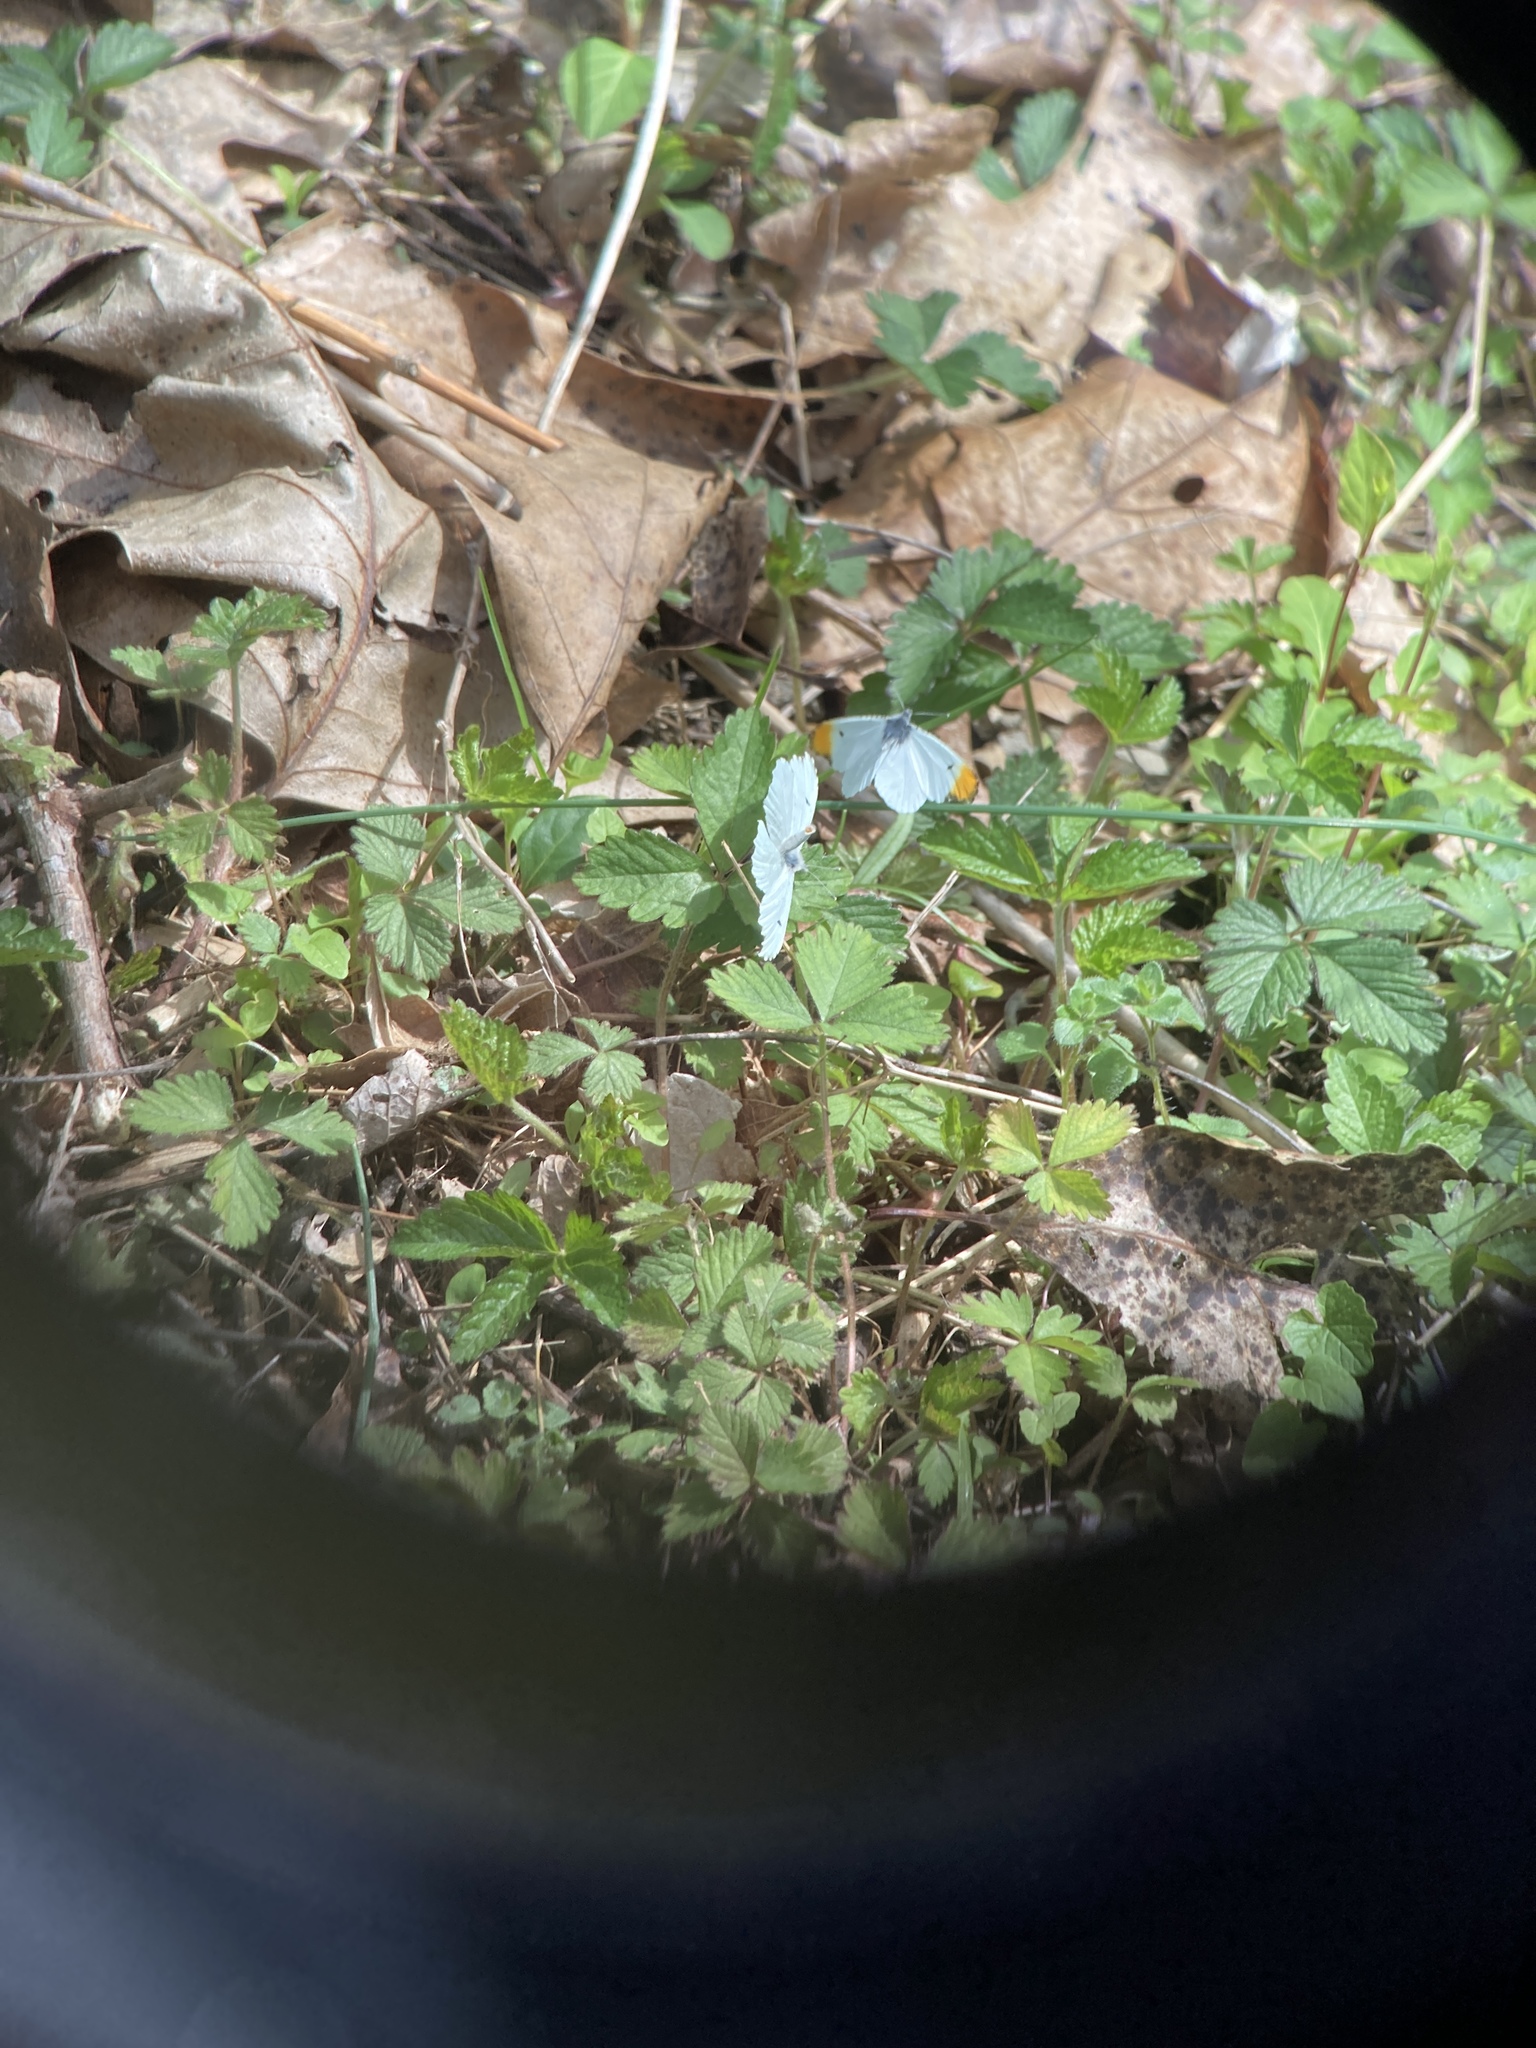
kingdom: Animalia
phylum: Arthropoda
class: Insecta
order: Lepidoptera
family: Pieridae
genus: Anthocharis
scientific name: Anthocharis midea
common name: Falcate orangetip
